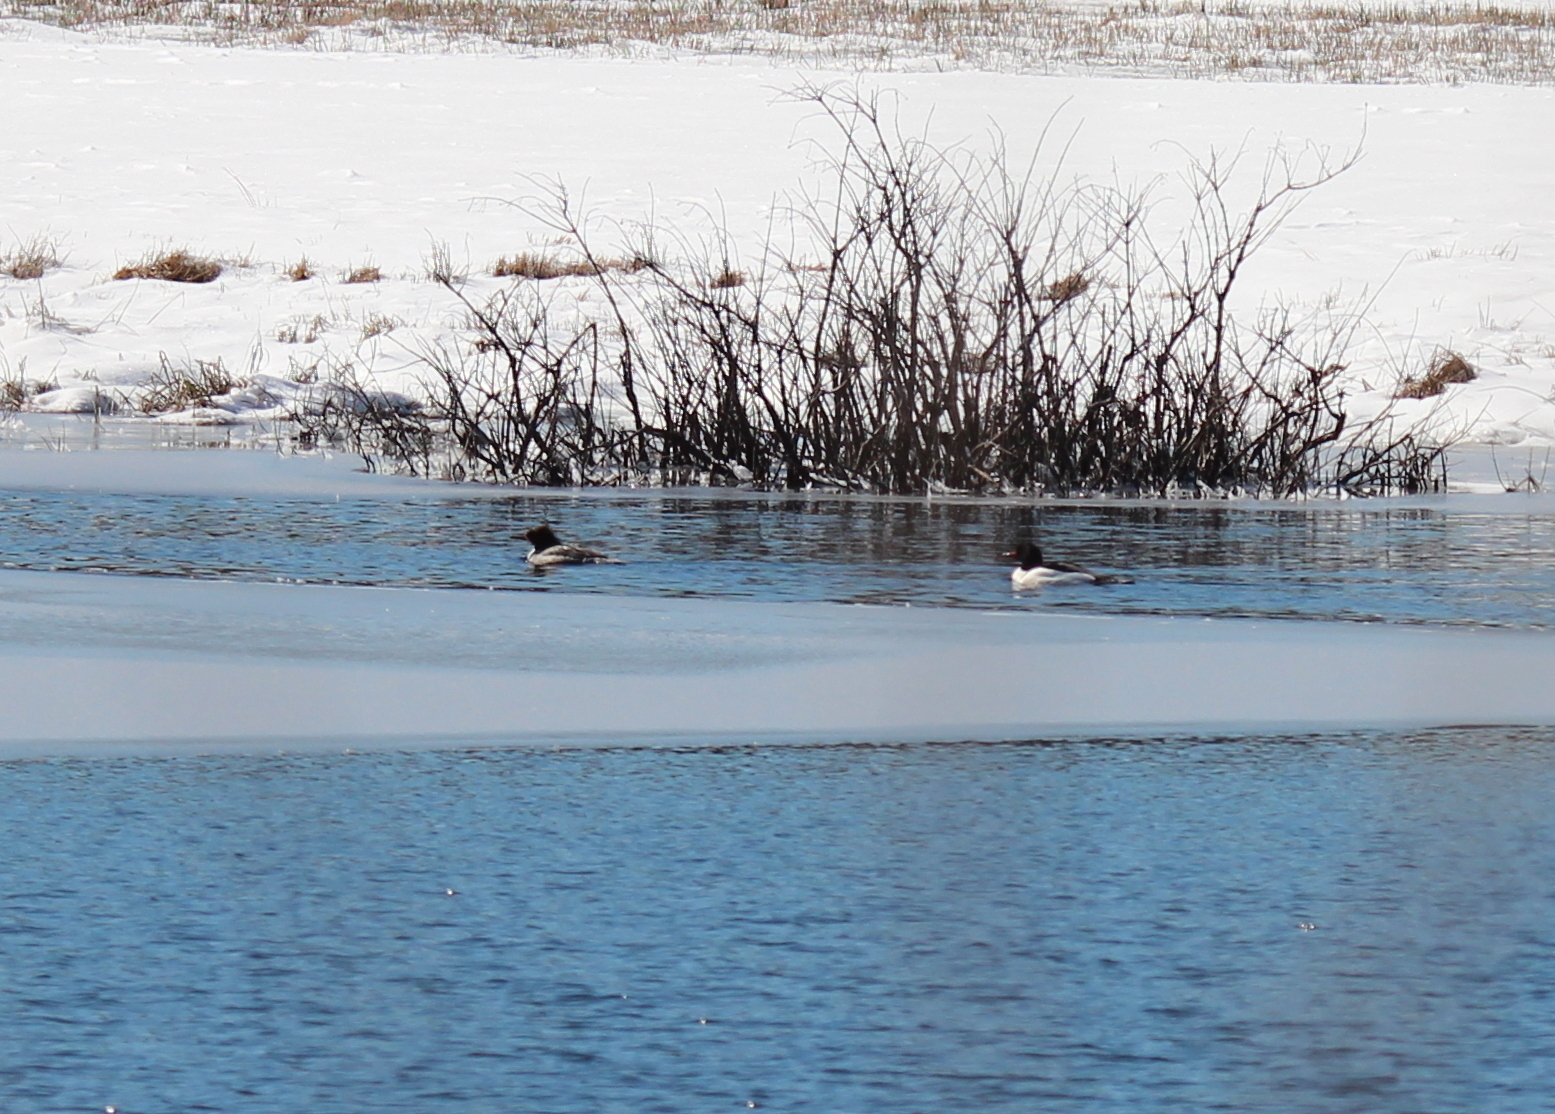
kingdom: Animalia
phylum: Chordata
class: Aves
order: Anseriformes
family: Anatidae
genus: Mergus
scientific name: Mergus merganser
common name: Common merganser
